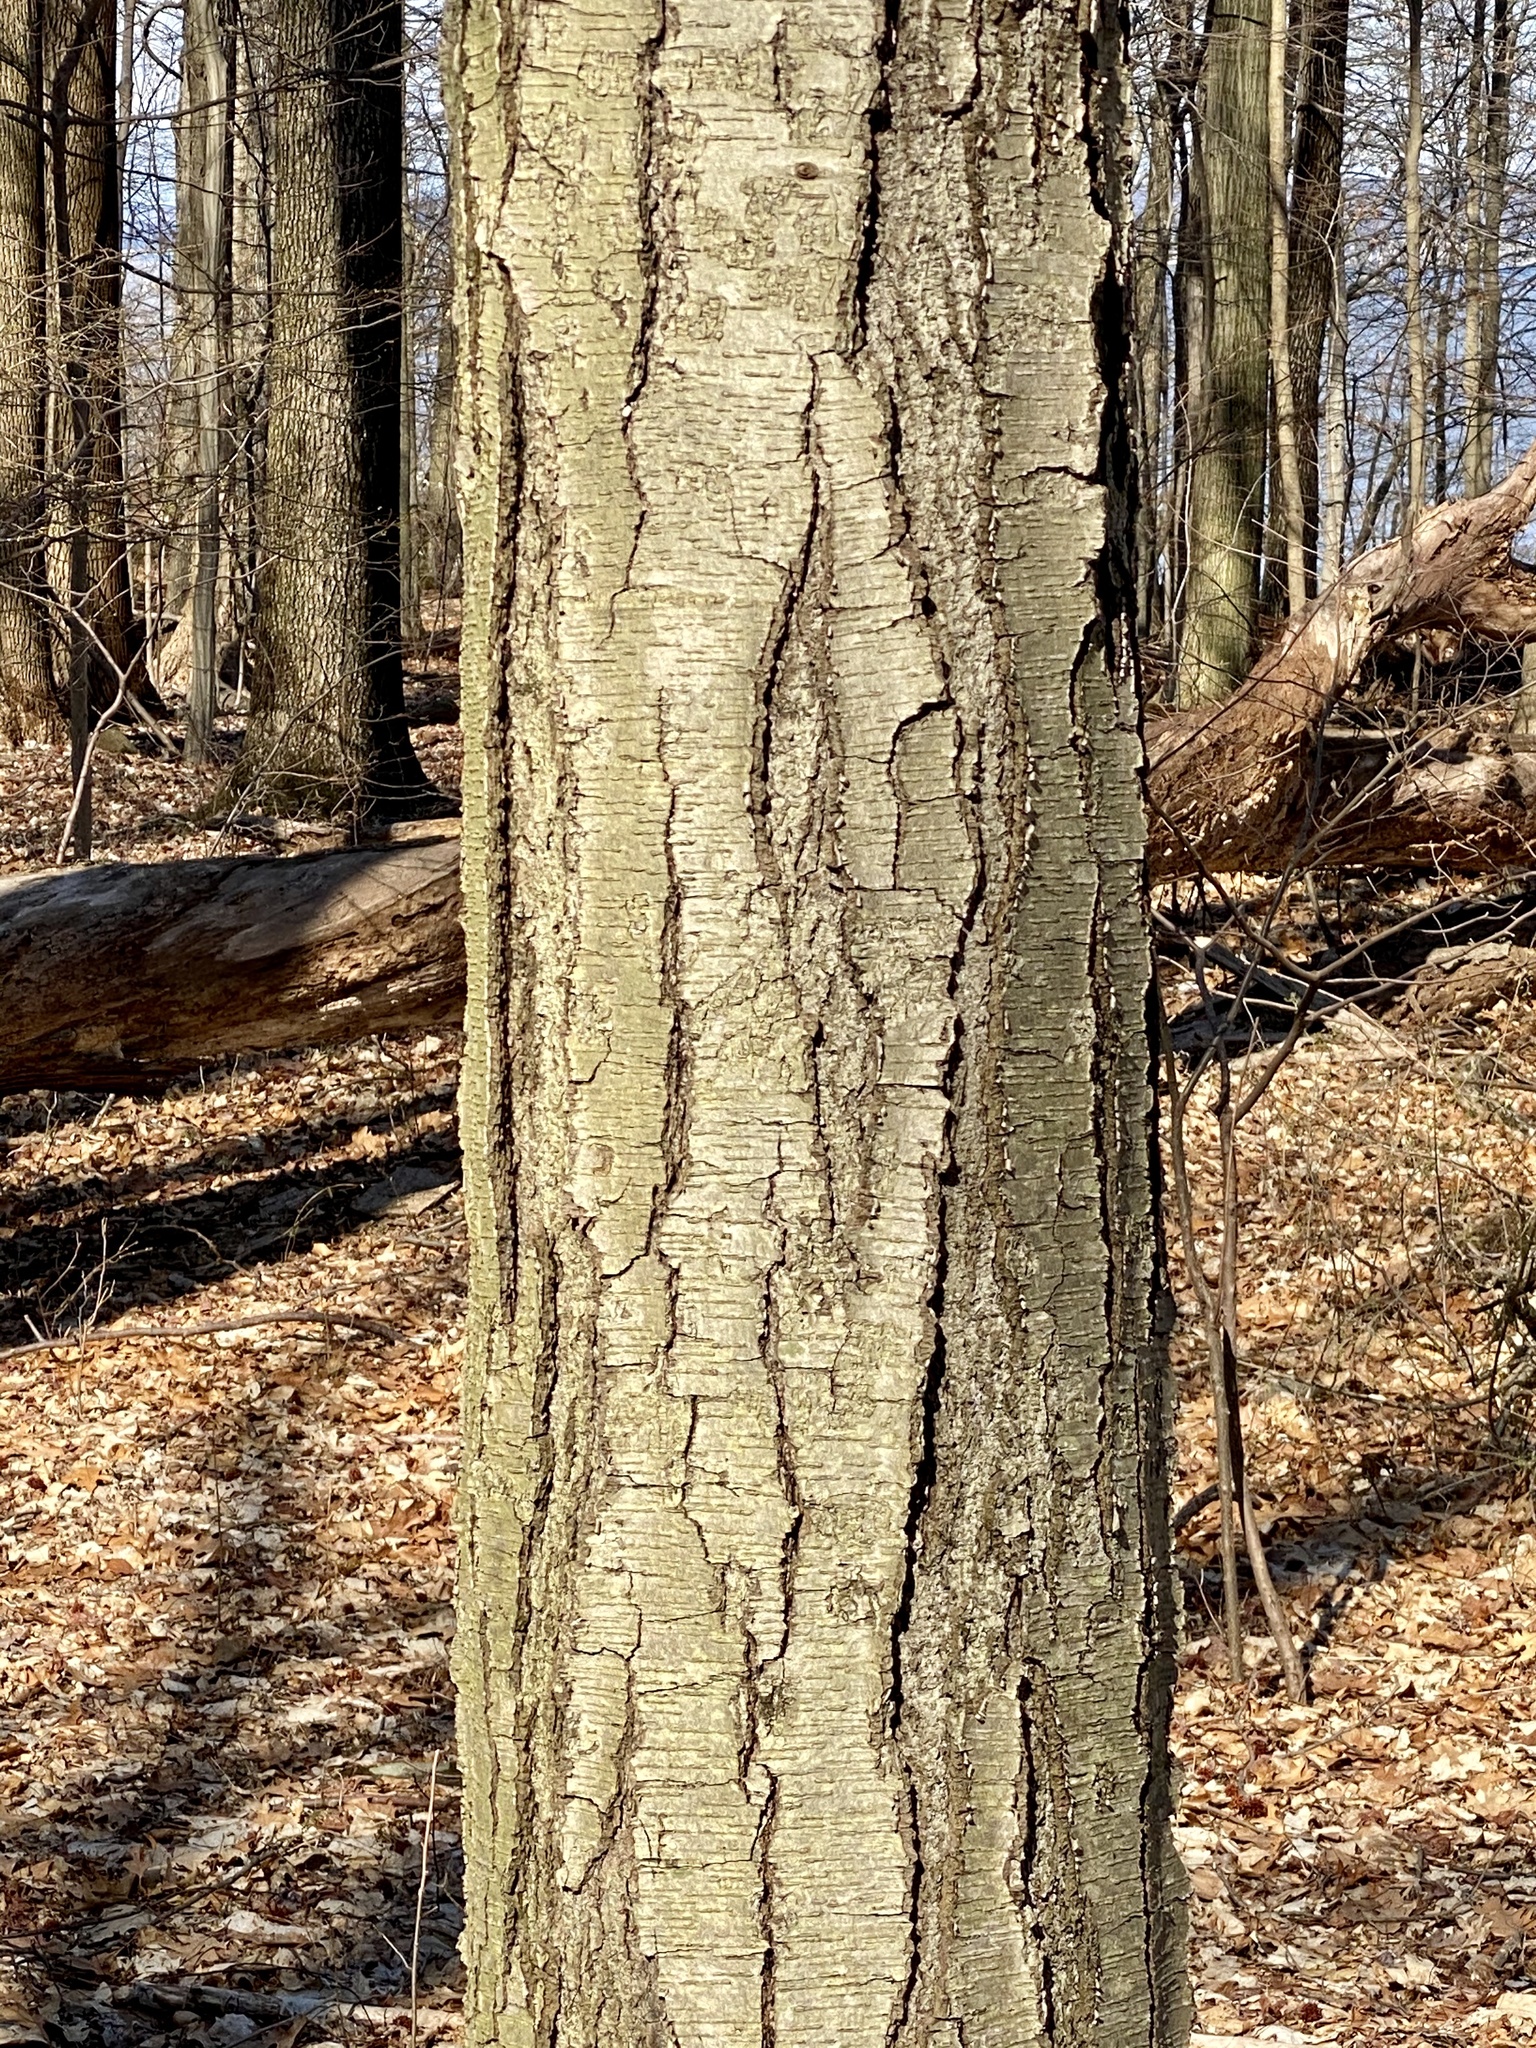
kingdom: Plantae
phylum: Tracheophyta
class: Magnoliopsida
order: Fagales
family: Betulaceae
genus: Betula
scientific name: Betula lenta
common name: Black birch
